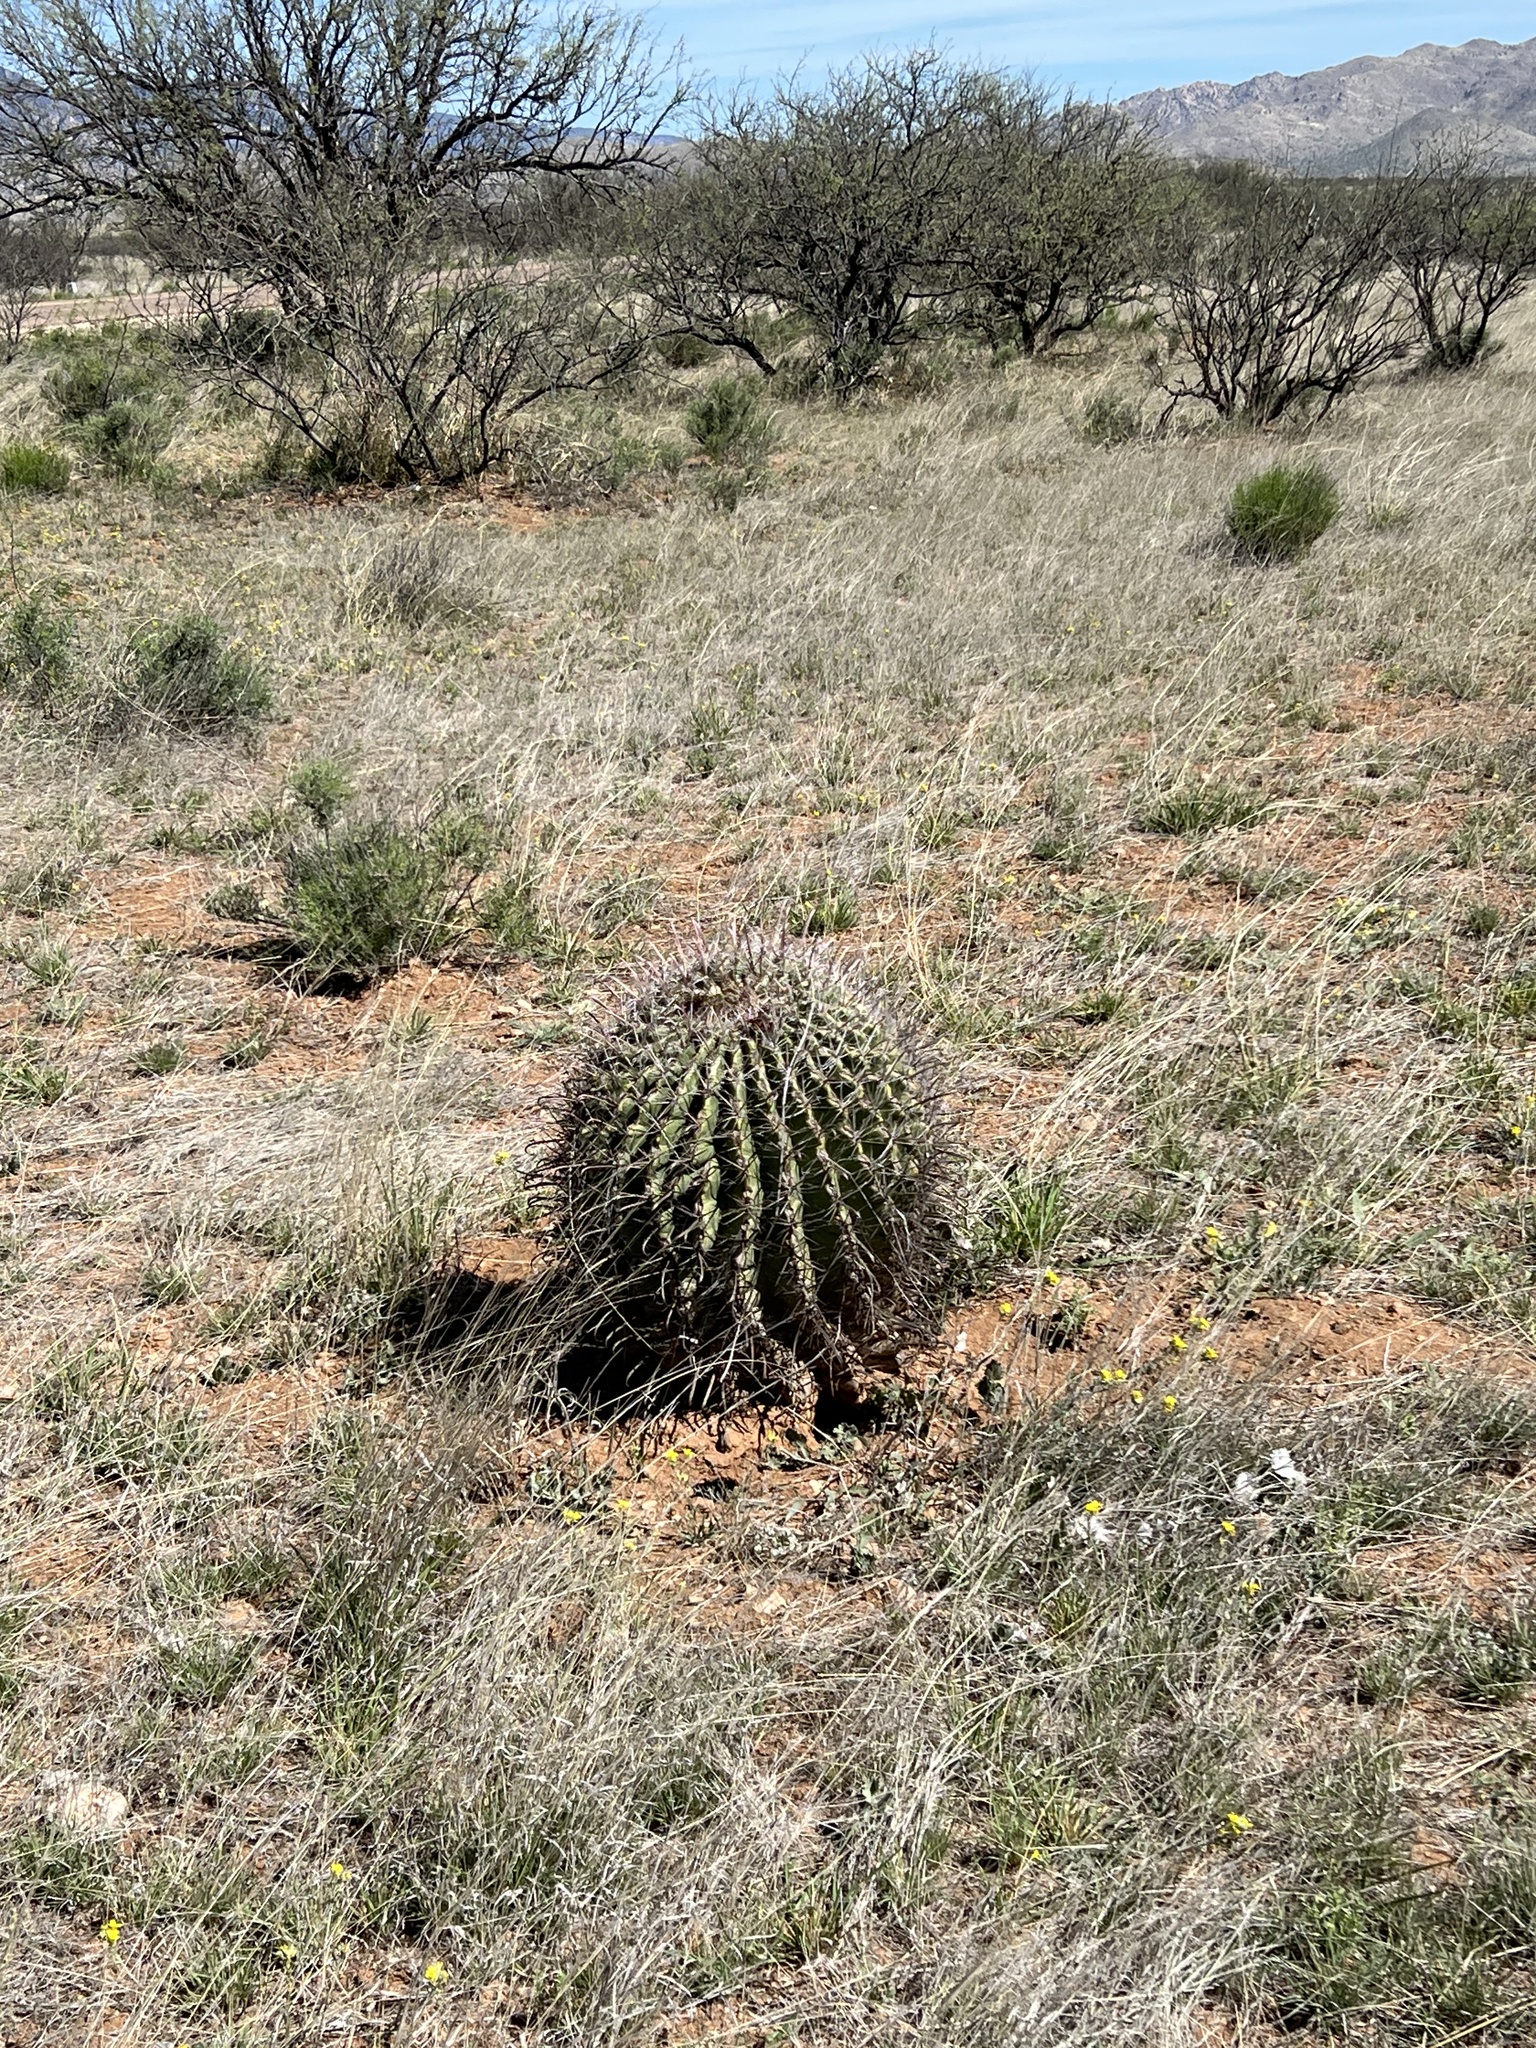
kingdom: Plantae
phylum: Tracheophyta
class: Magnoliopsida
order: Caryophyllales
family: Cactaceae
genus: Ferocactus
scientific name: Ferocactus wislizeni
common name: Candy barrel cactus
